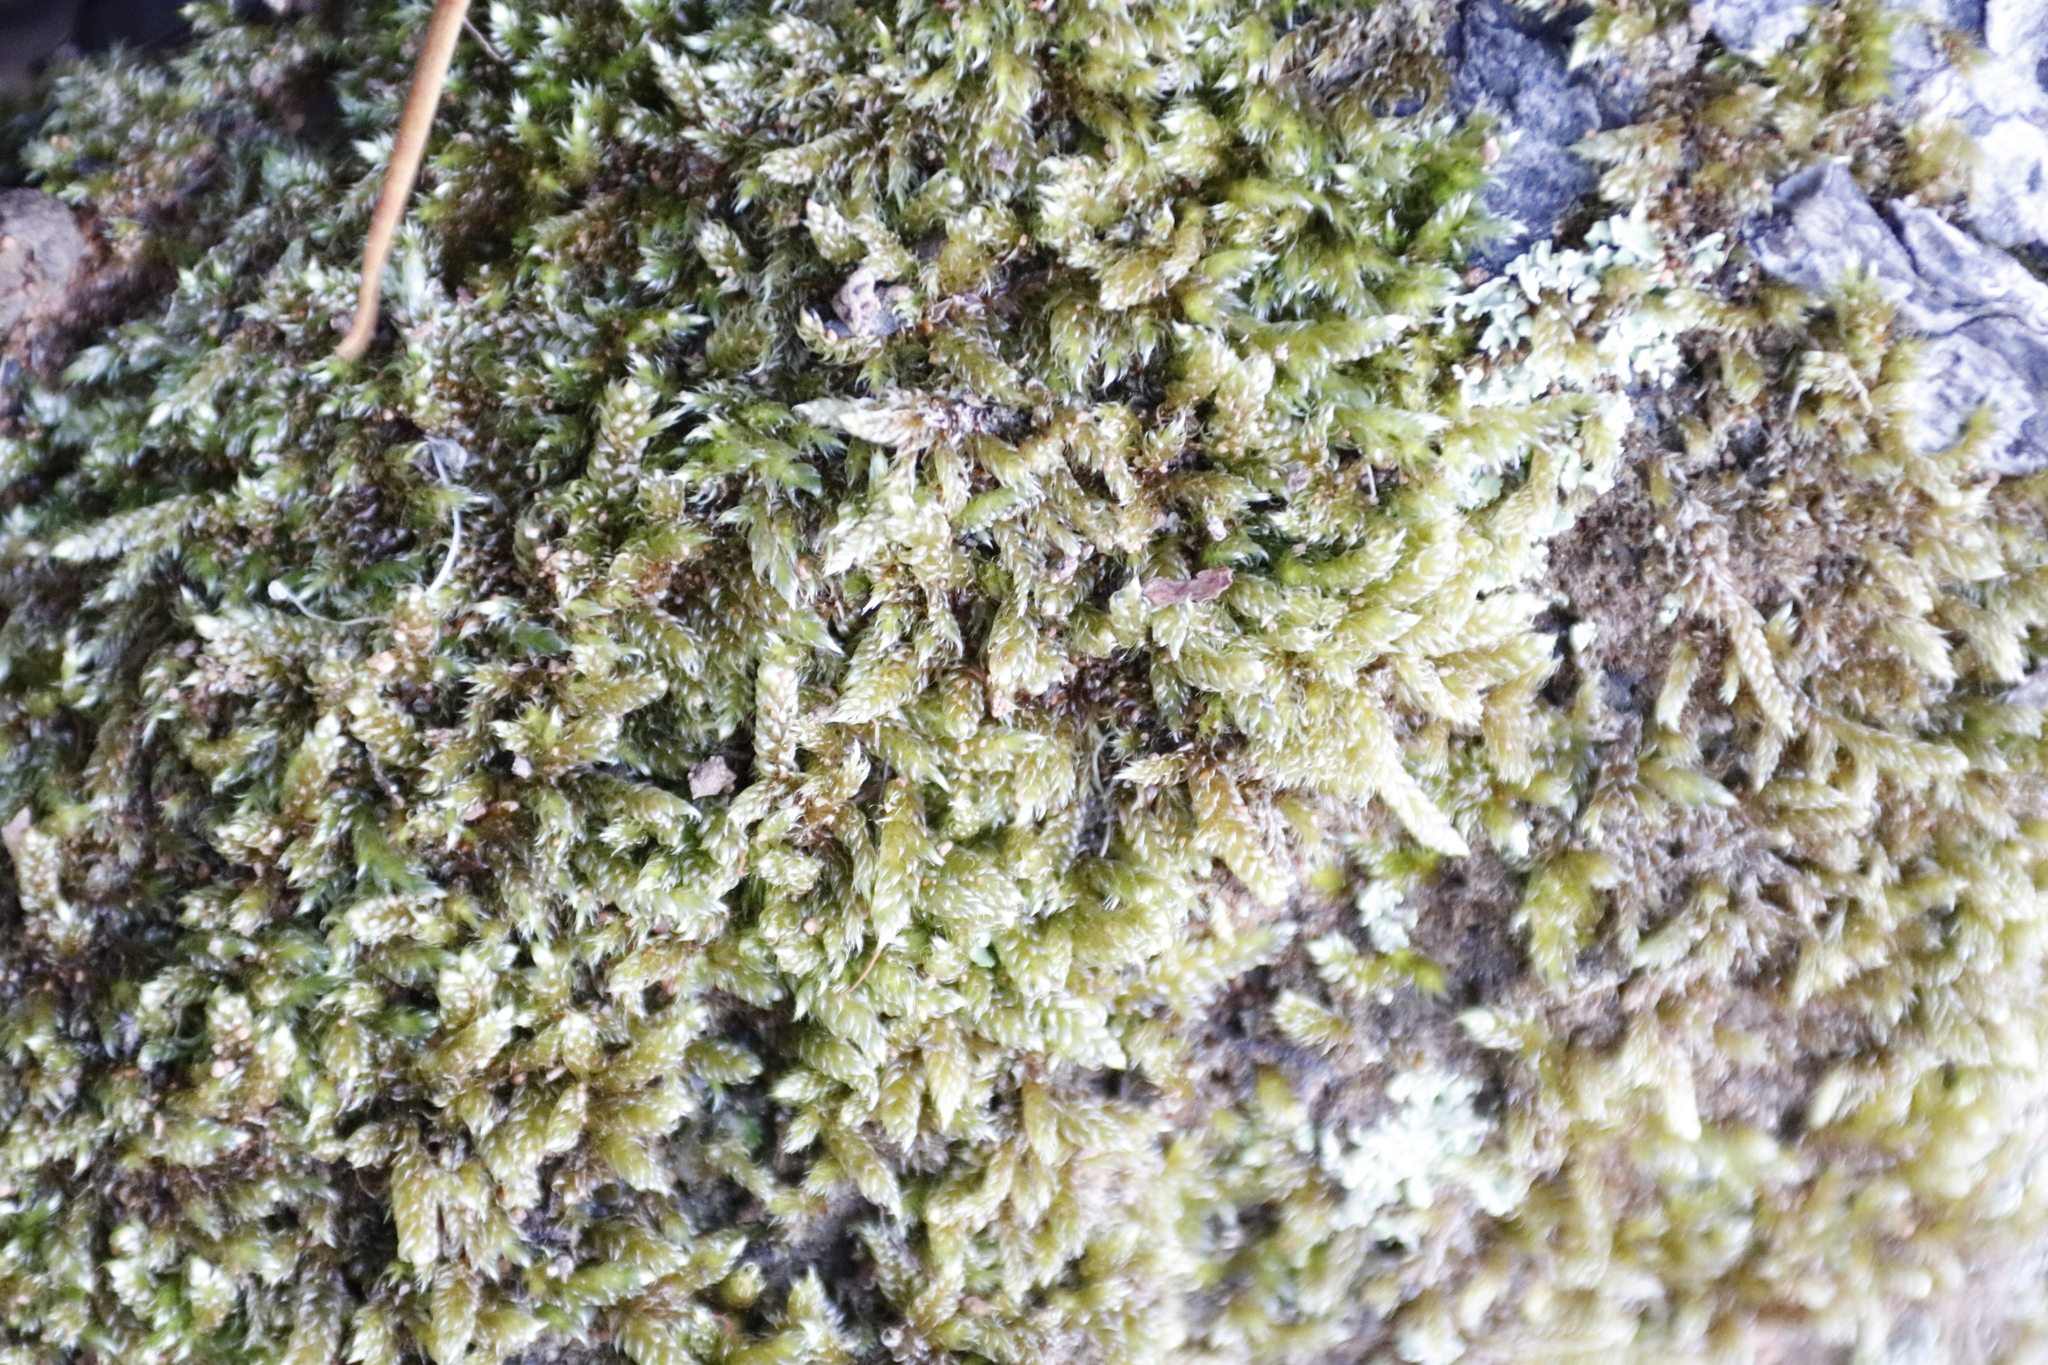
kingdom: Plantae
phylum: Bryophyta
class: Bryopsida
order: Hypnales
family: Hypnaceae
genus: Hypnum
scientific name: Hypnum cupressiforme
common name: Cypress-leaved plait-moss
